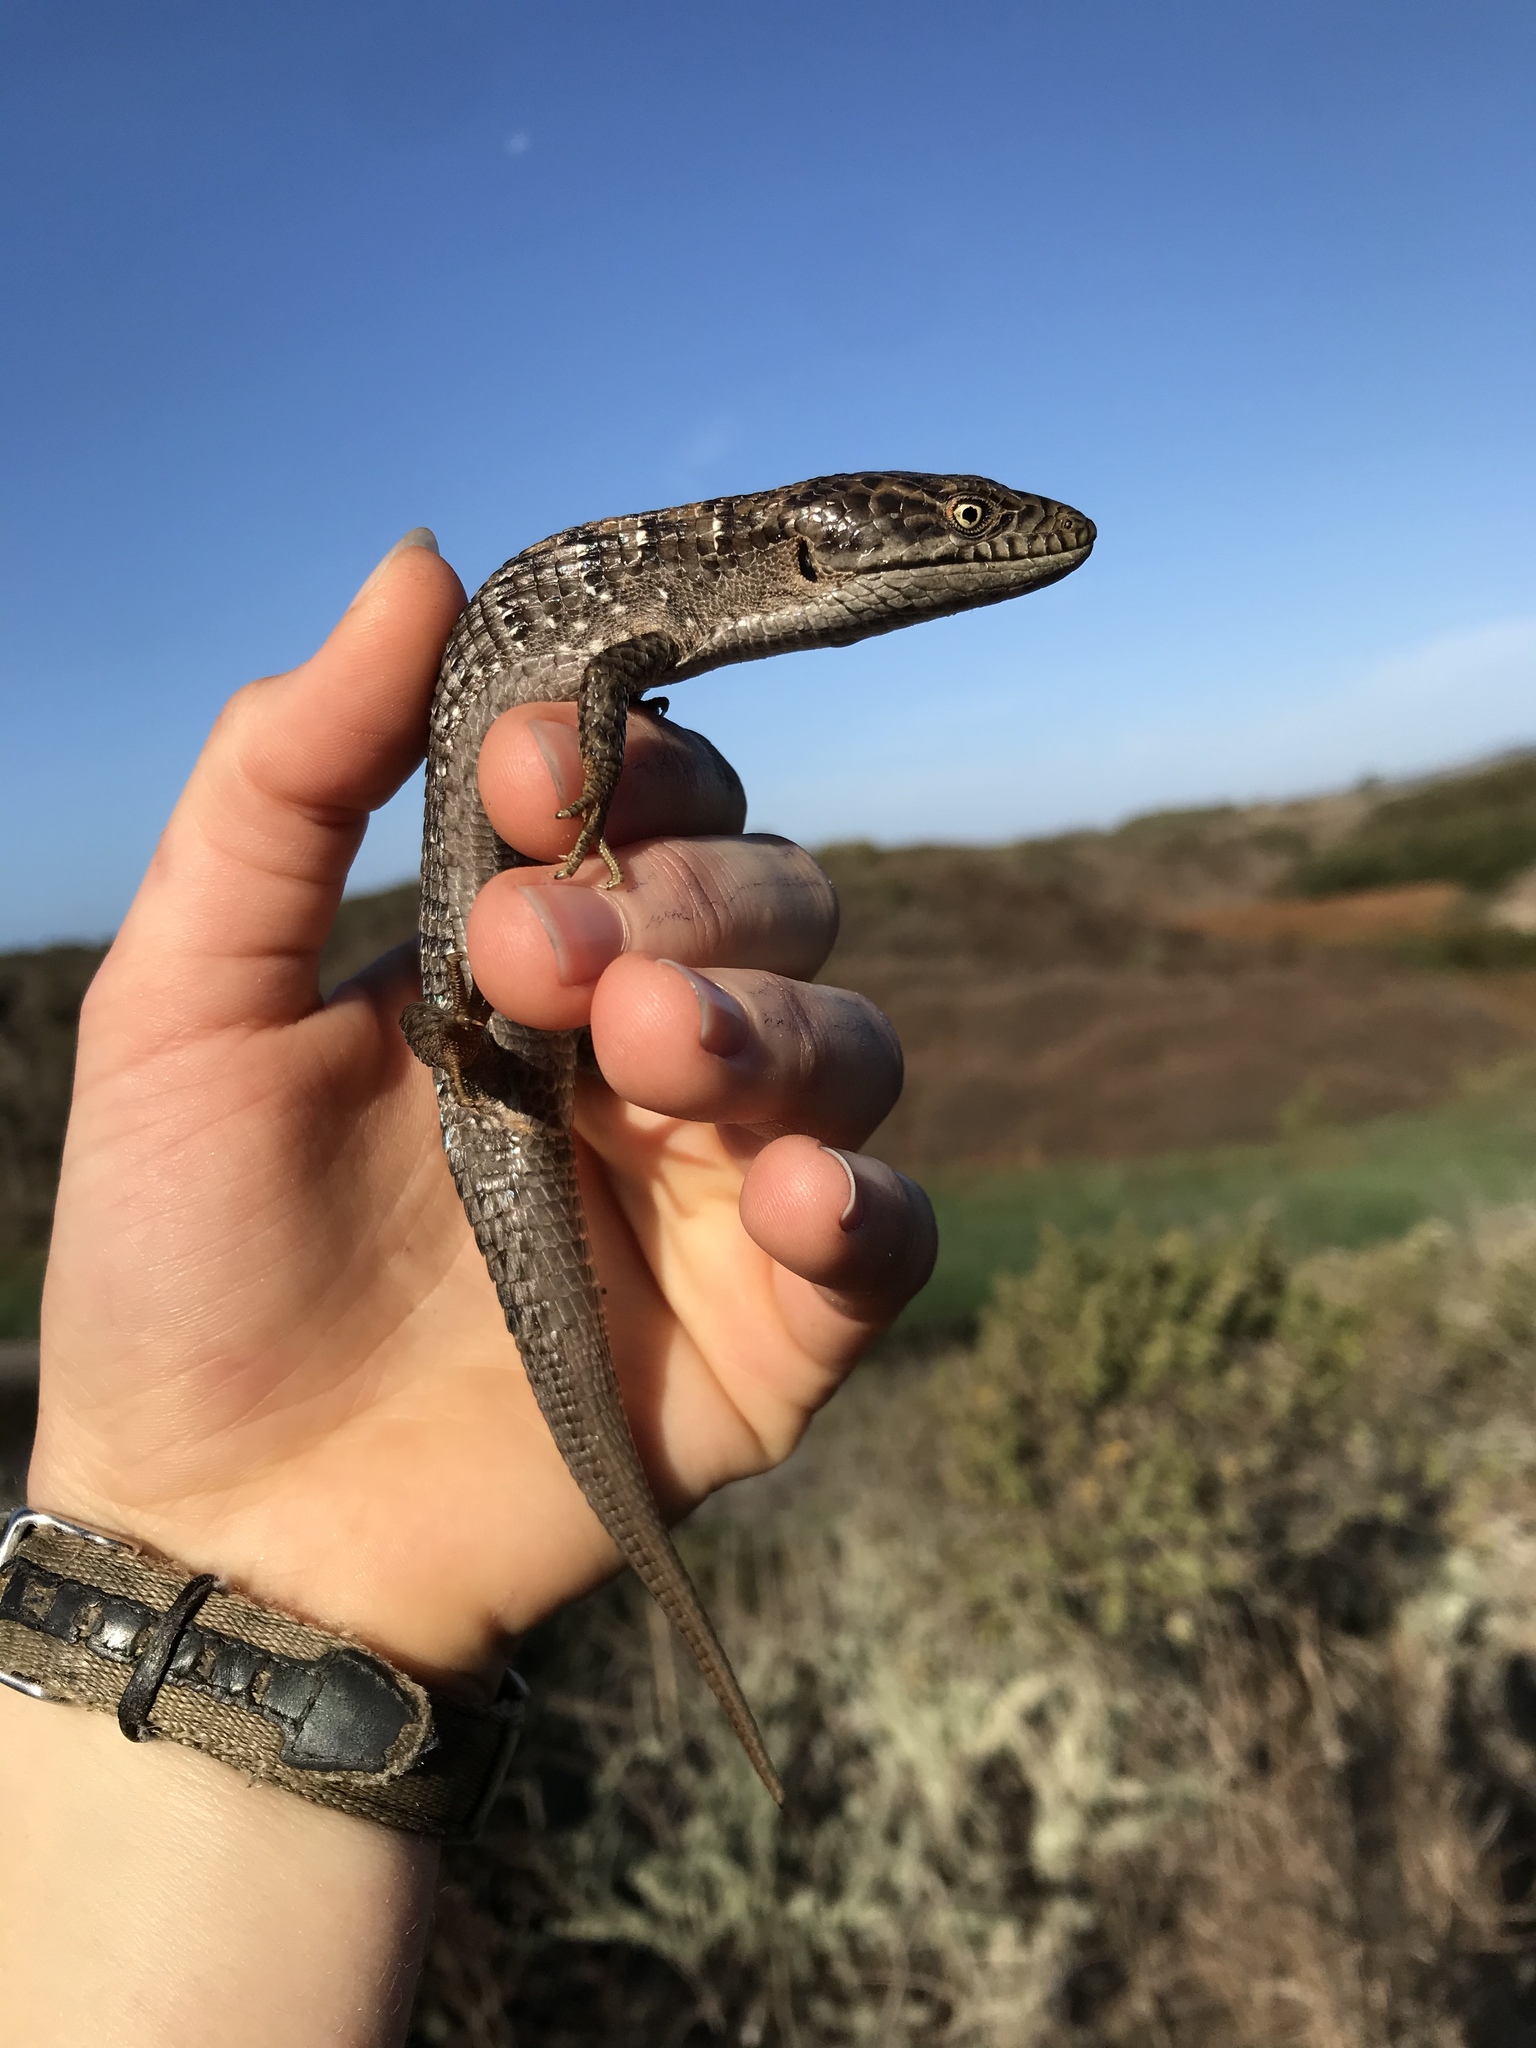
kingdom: Animalia
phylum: Chordata
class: Squamata
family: Anguidae
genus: Elgaria
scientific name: Elgaria multicarinata
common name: Southern alligator lizard
